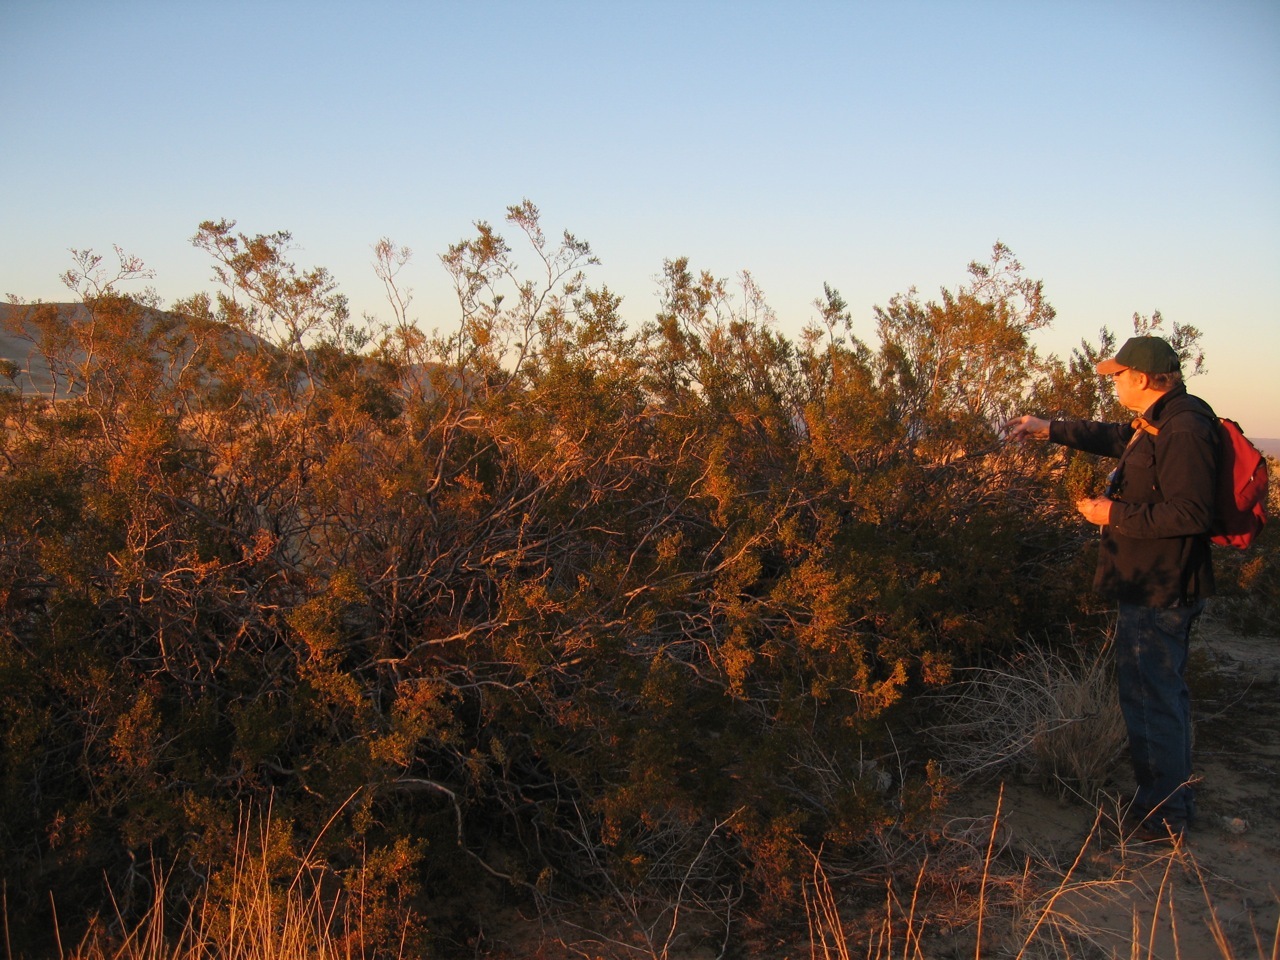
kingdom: Plantae
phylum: Tracheophyta
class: Magnoliopsida
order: Zygophyllales
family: Zygophyllaceae
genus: Larrea
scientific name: Larrea tridentata
